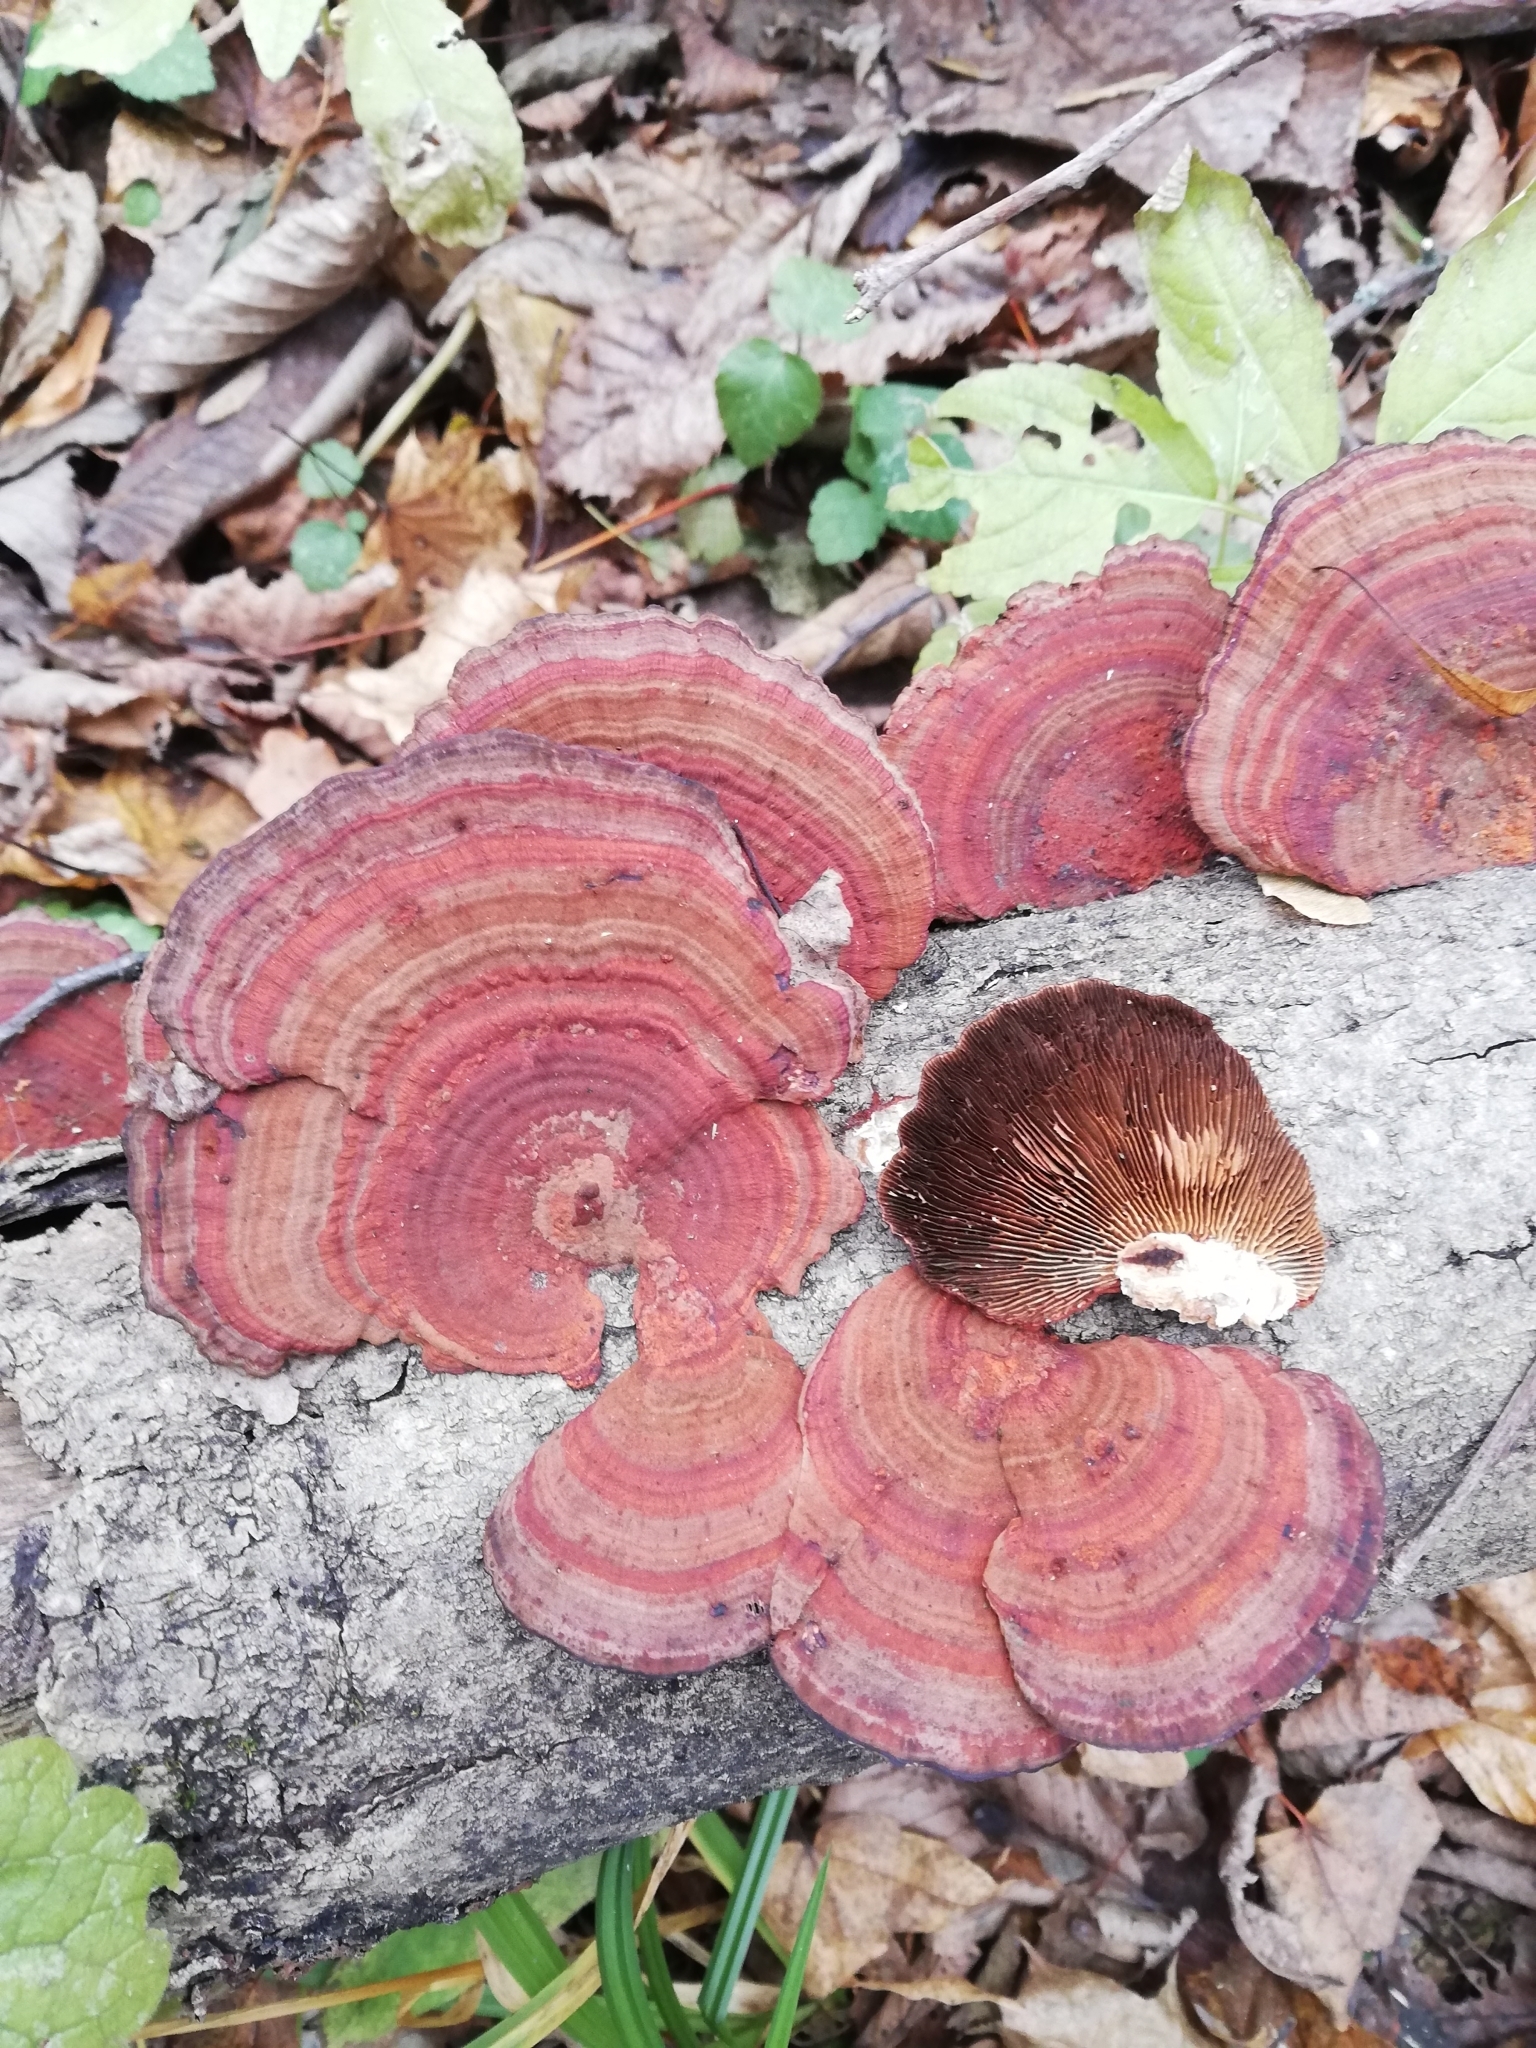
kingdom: Fungi
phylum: Basidiomycota
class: Agaricomycetes
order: Polyporales
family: Polyporaceae
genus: Daedaleopsis
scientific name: Daedaleopsis tricolor
